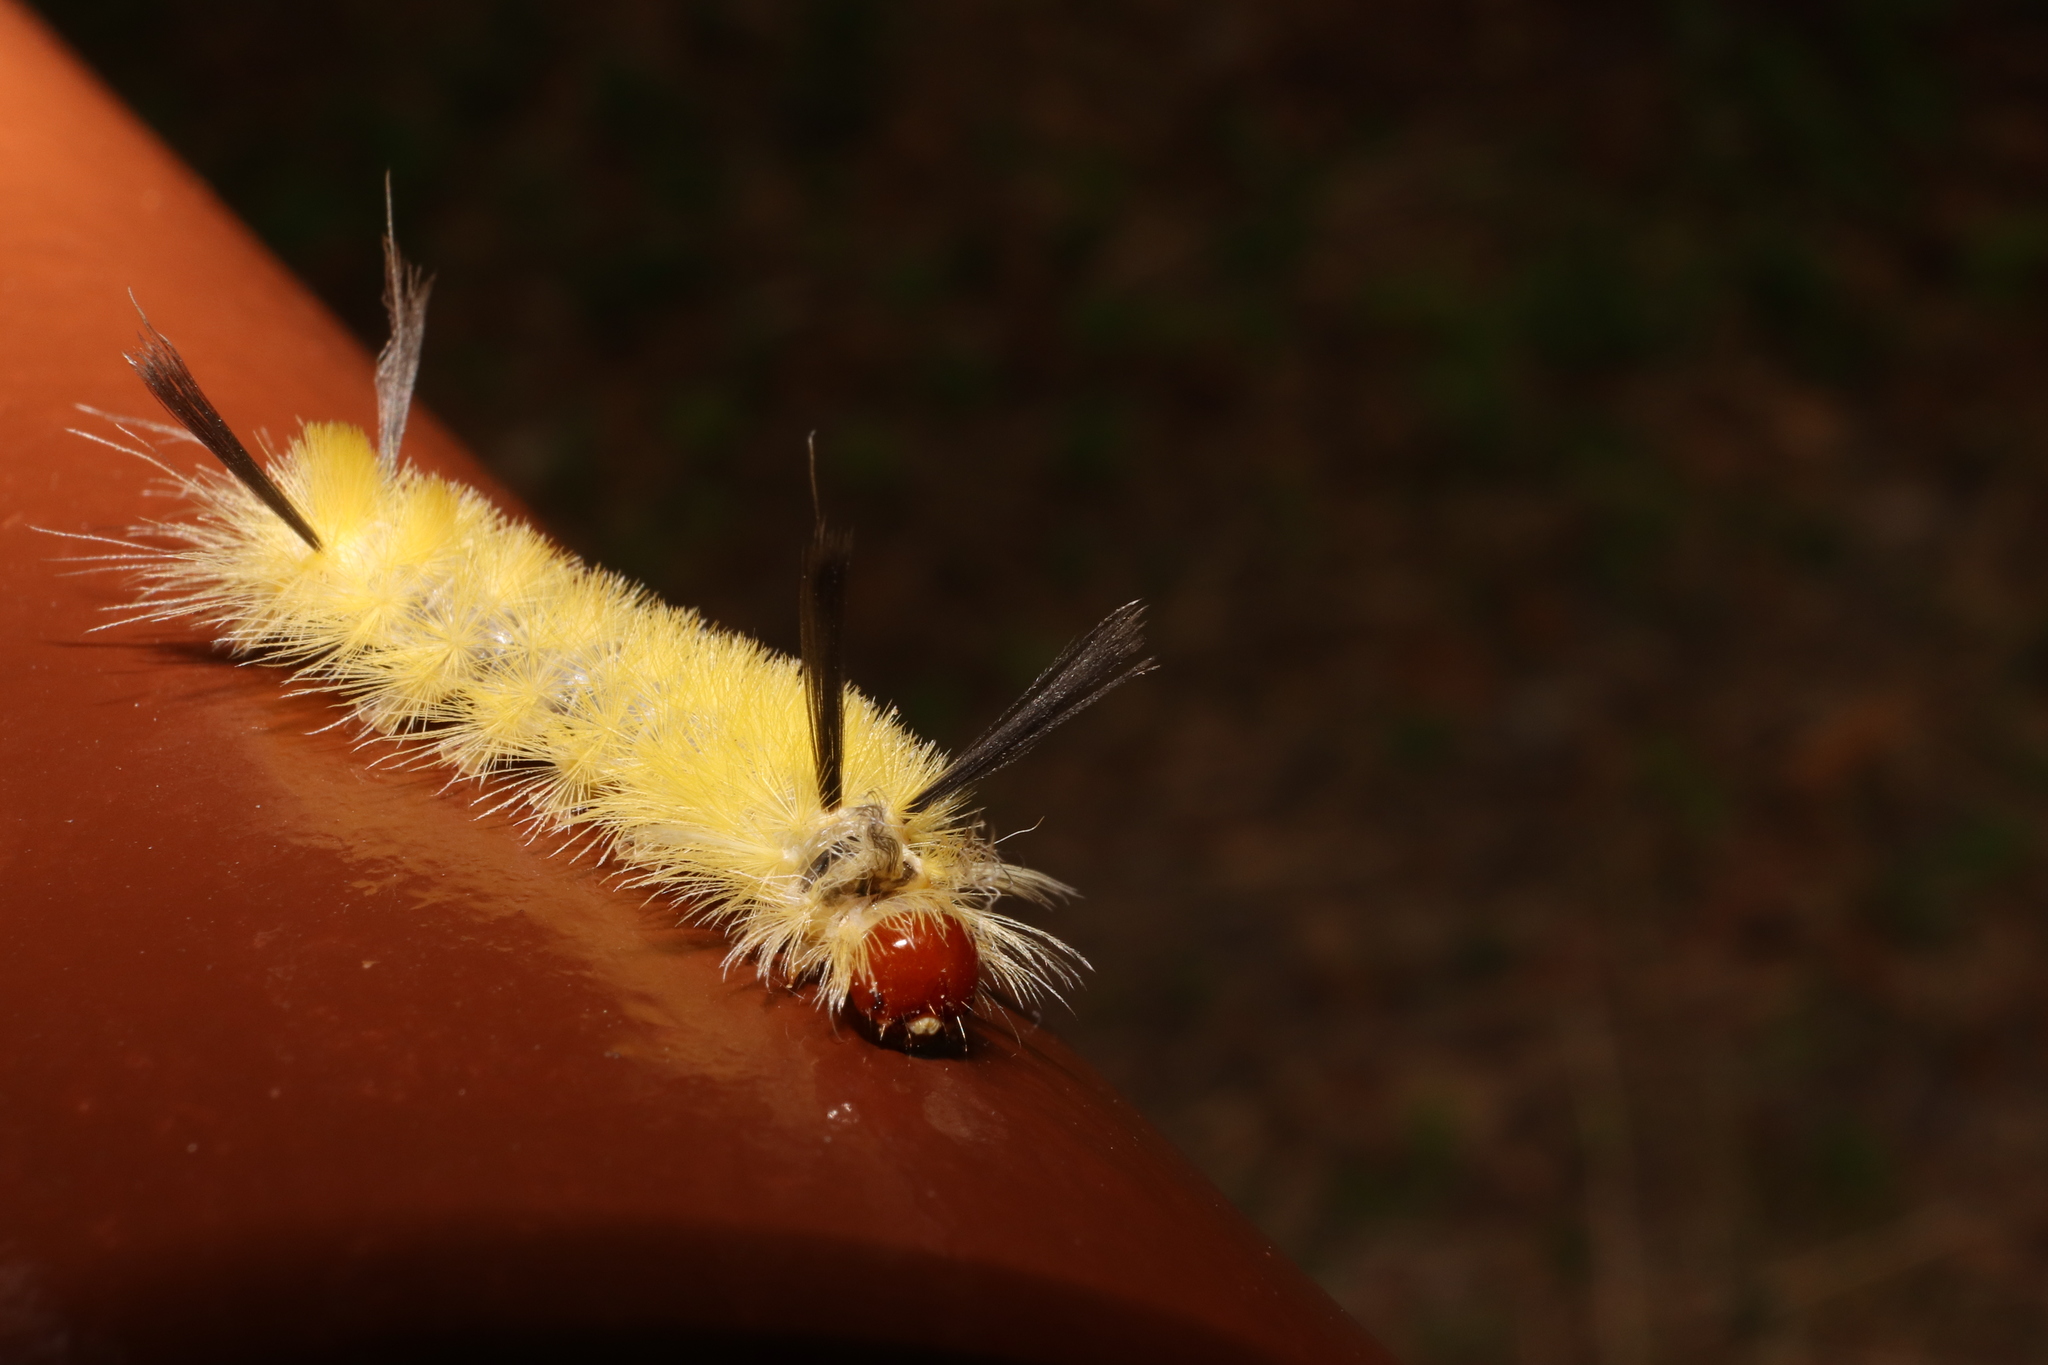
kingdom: Animalia
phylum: Arthropoda
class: Insecta
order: Lepidoptera
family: Erebidae
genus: Halysidota
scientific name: Halysidota tessellaris
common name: Banded tussock moth
